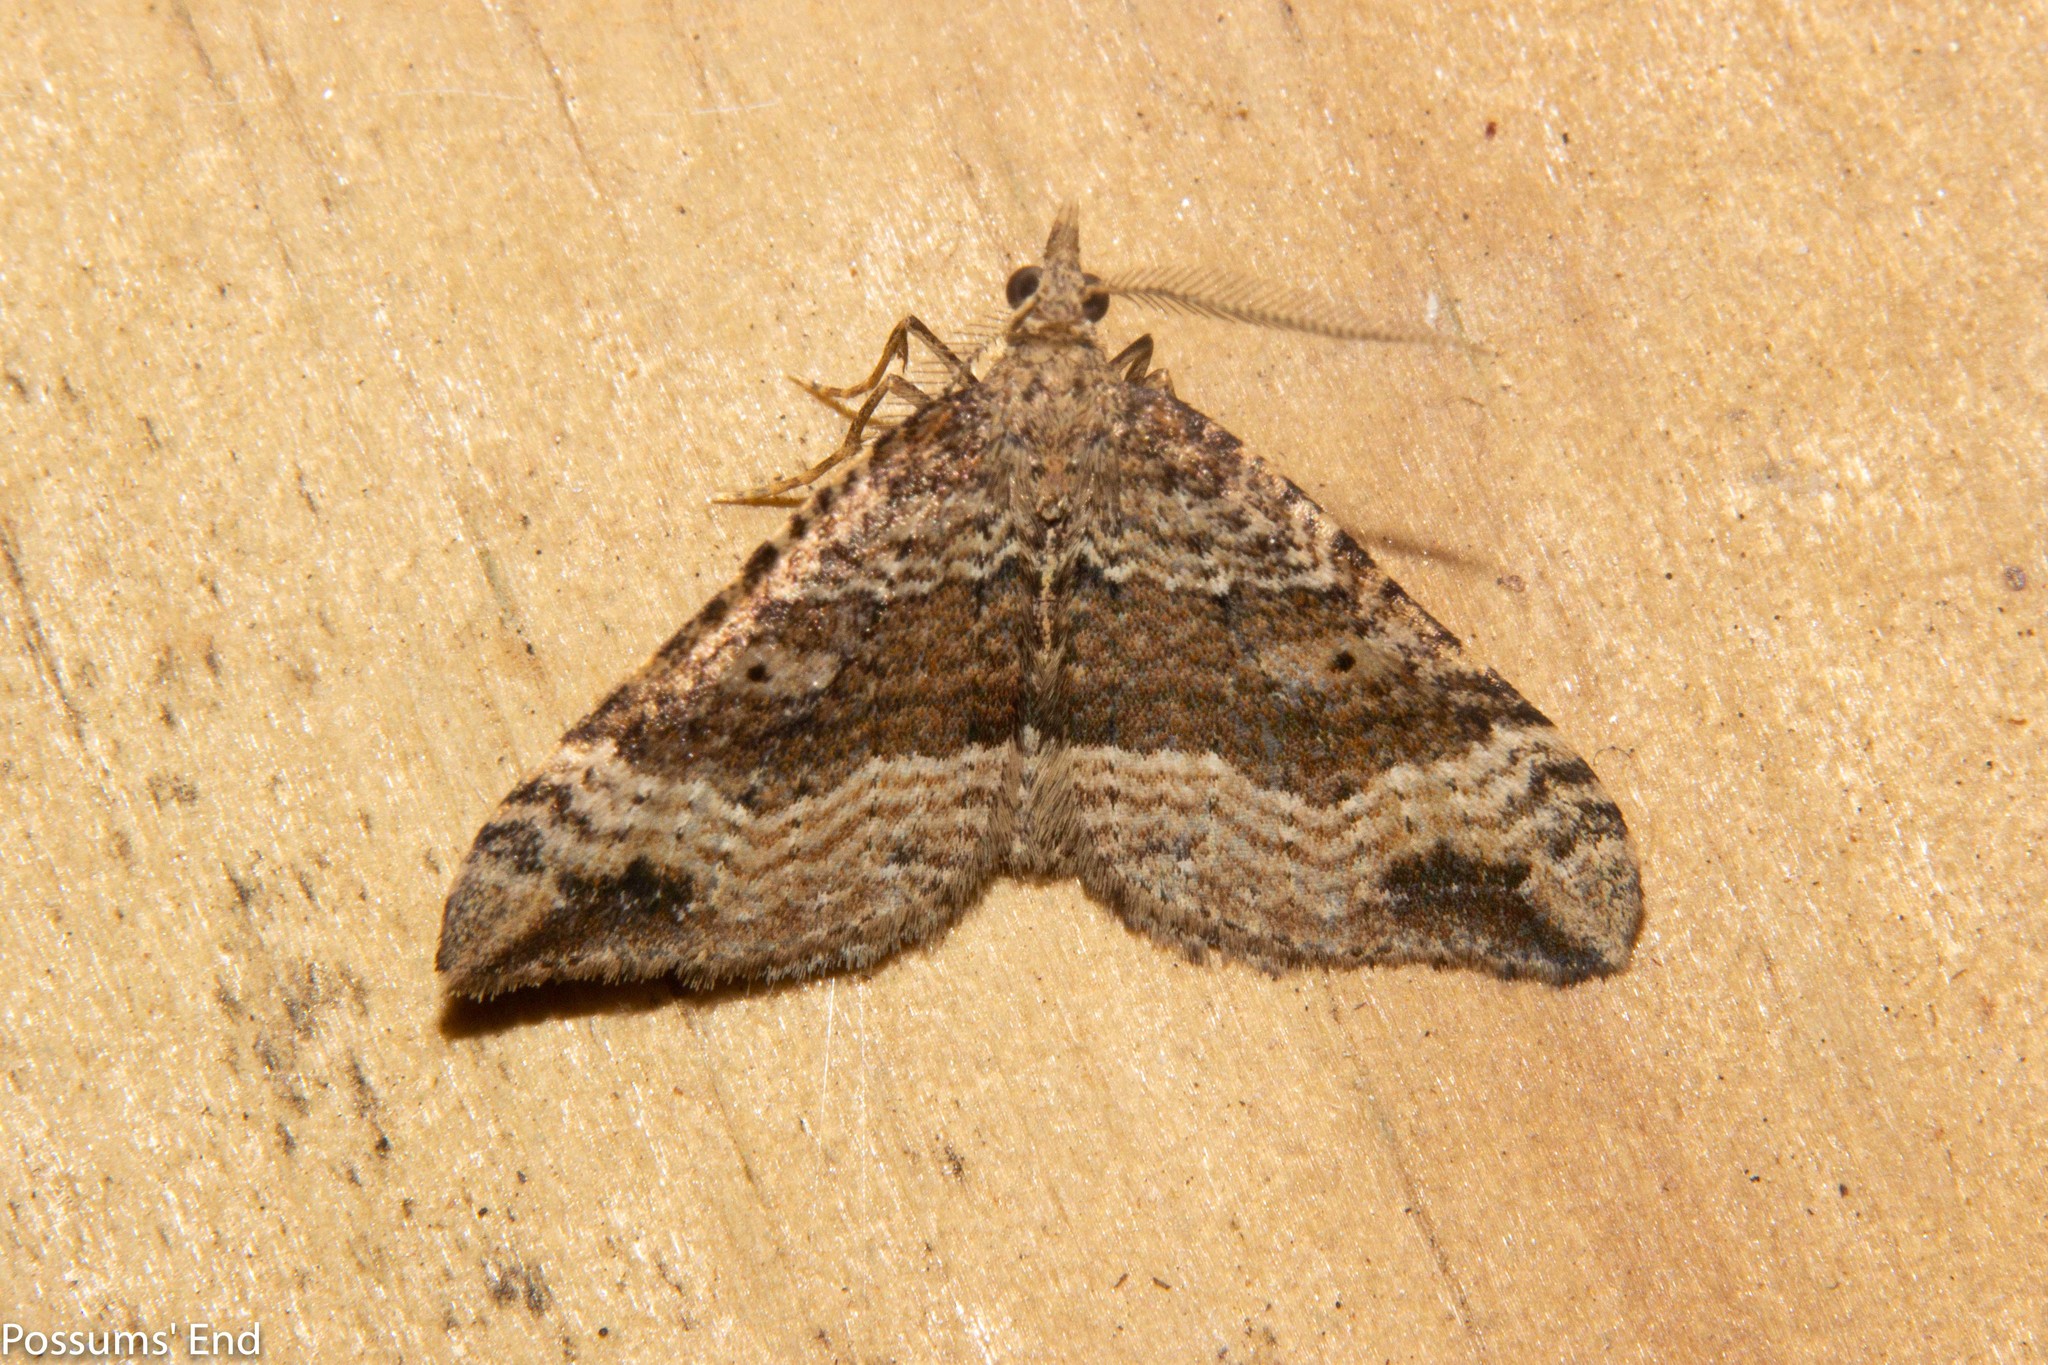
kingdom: Animalia
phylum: Arthropoda
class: Insecta
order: Lepidoptera
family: Geometridae
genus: Homodotis
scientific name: Homodotis falcata
